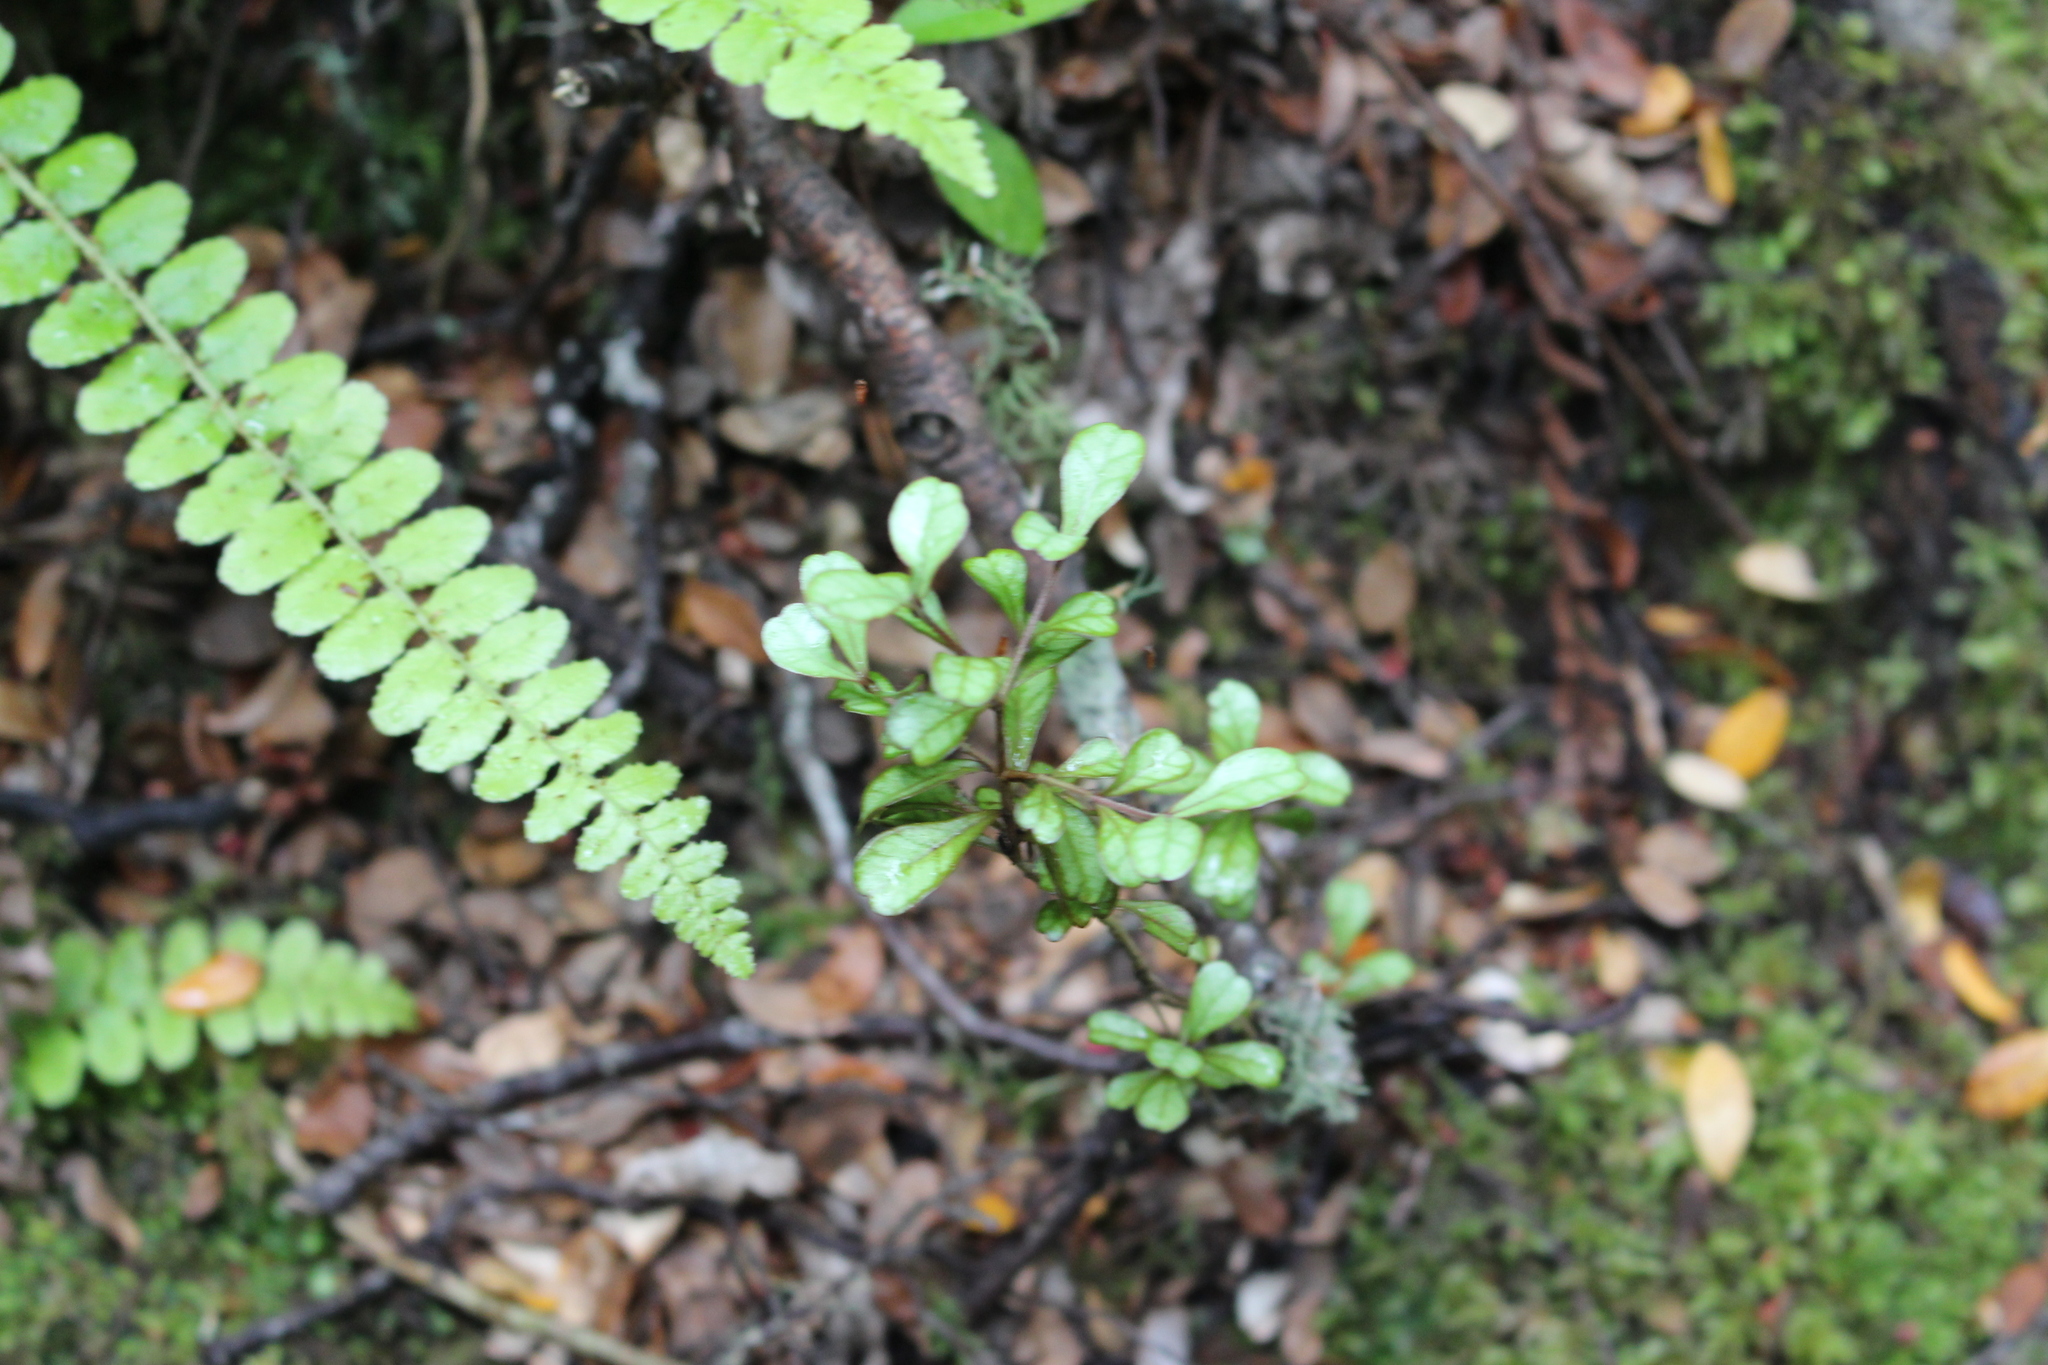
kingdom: Plantae
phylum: Tracheophyta
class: Magnoliopsida
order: Myrtales
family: Myrtaceae
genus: Lophomyrtus
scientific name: Lophomyrtus obcordata
